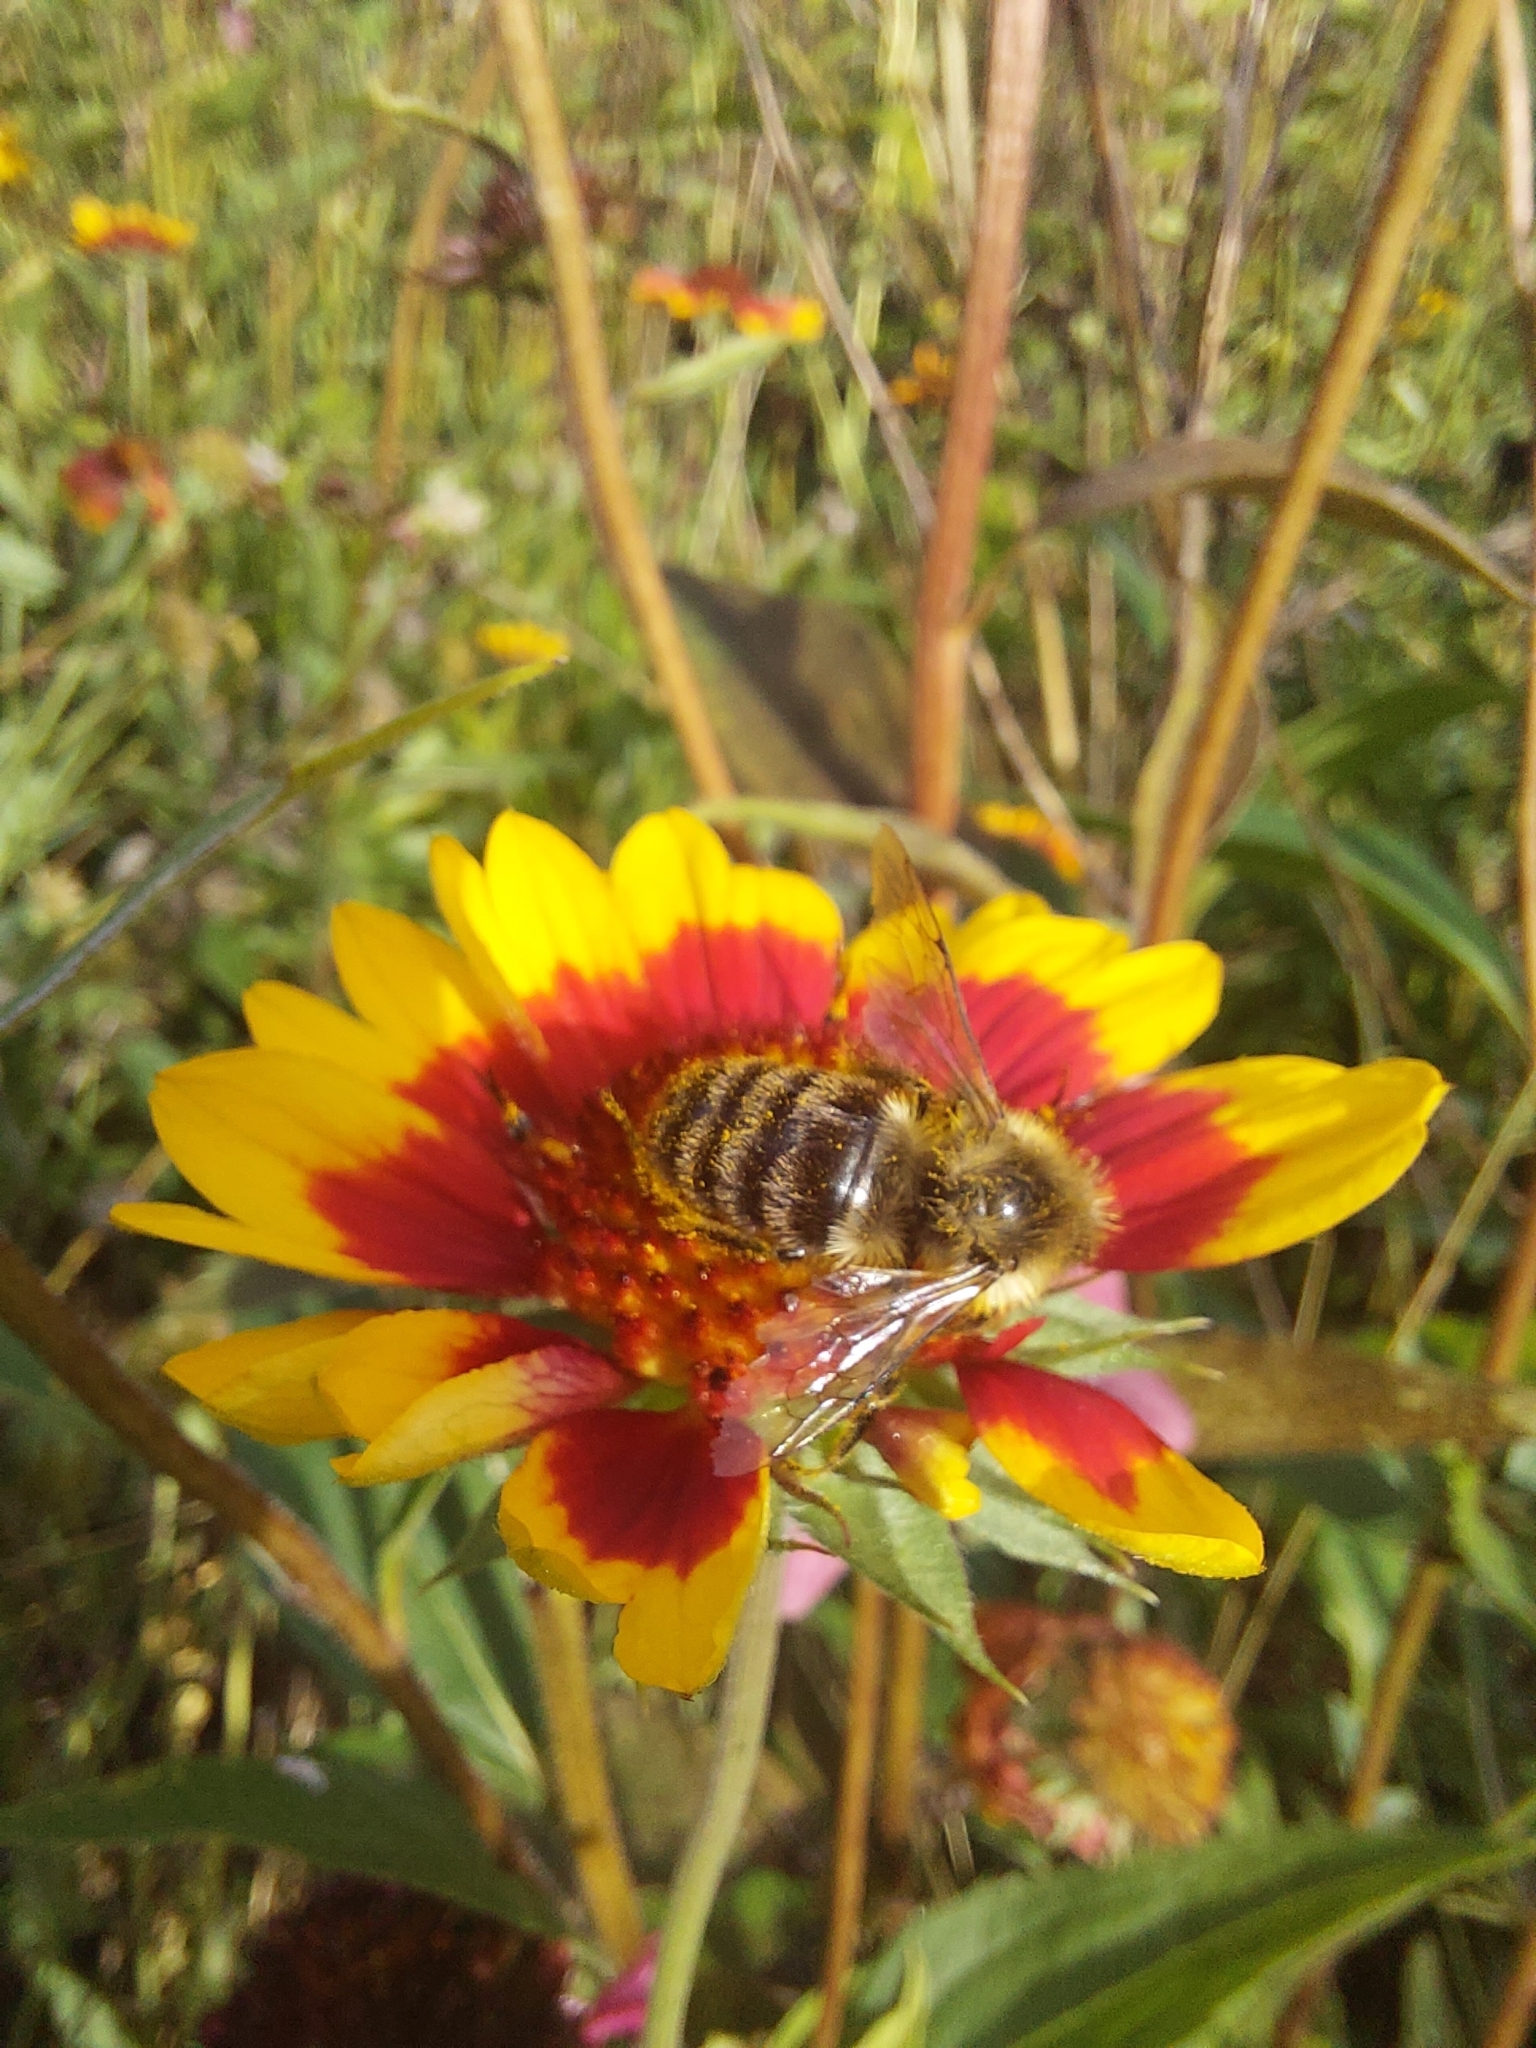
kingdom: Animalia
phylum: Arthropoda
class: Insecta
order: Hymenoptera
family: Apidae
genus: Bombus
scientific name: Bombus impatiens
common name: Common eastern bumble bee
